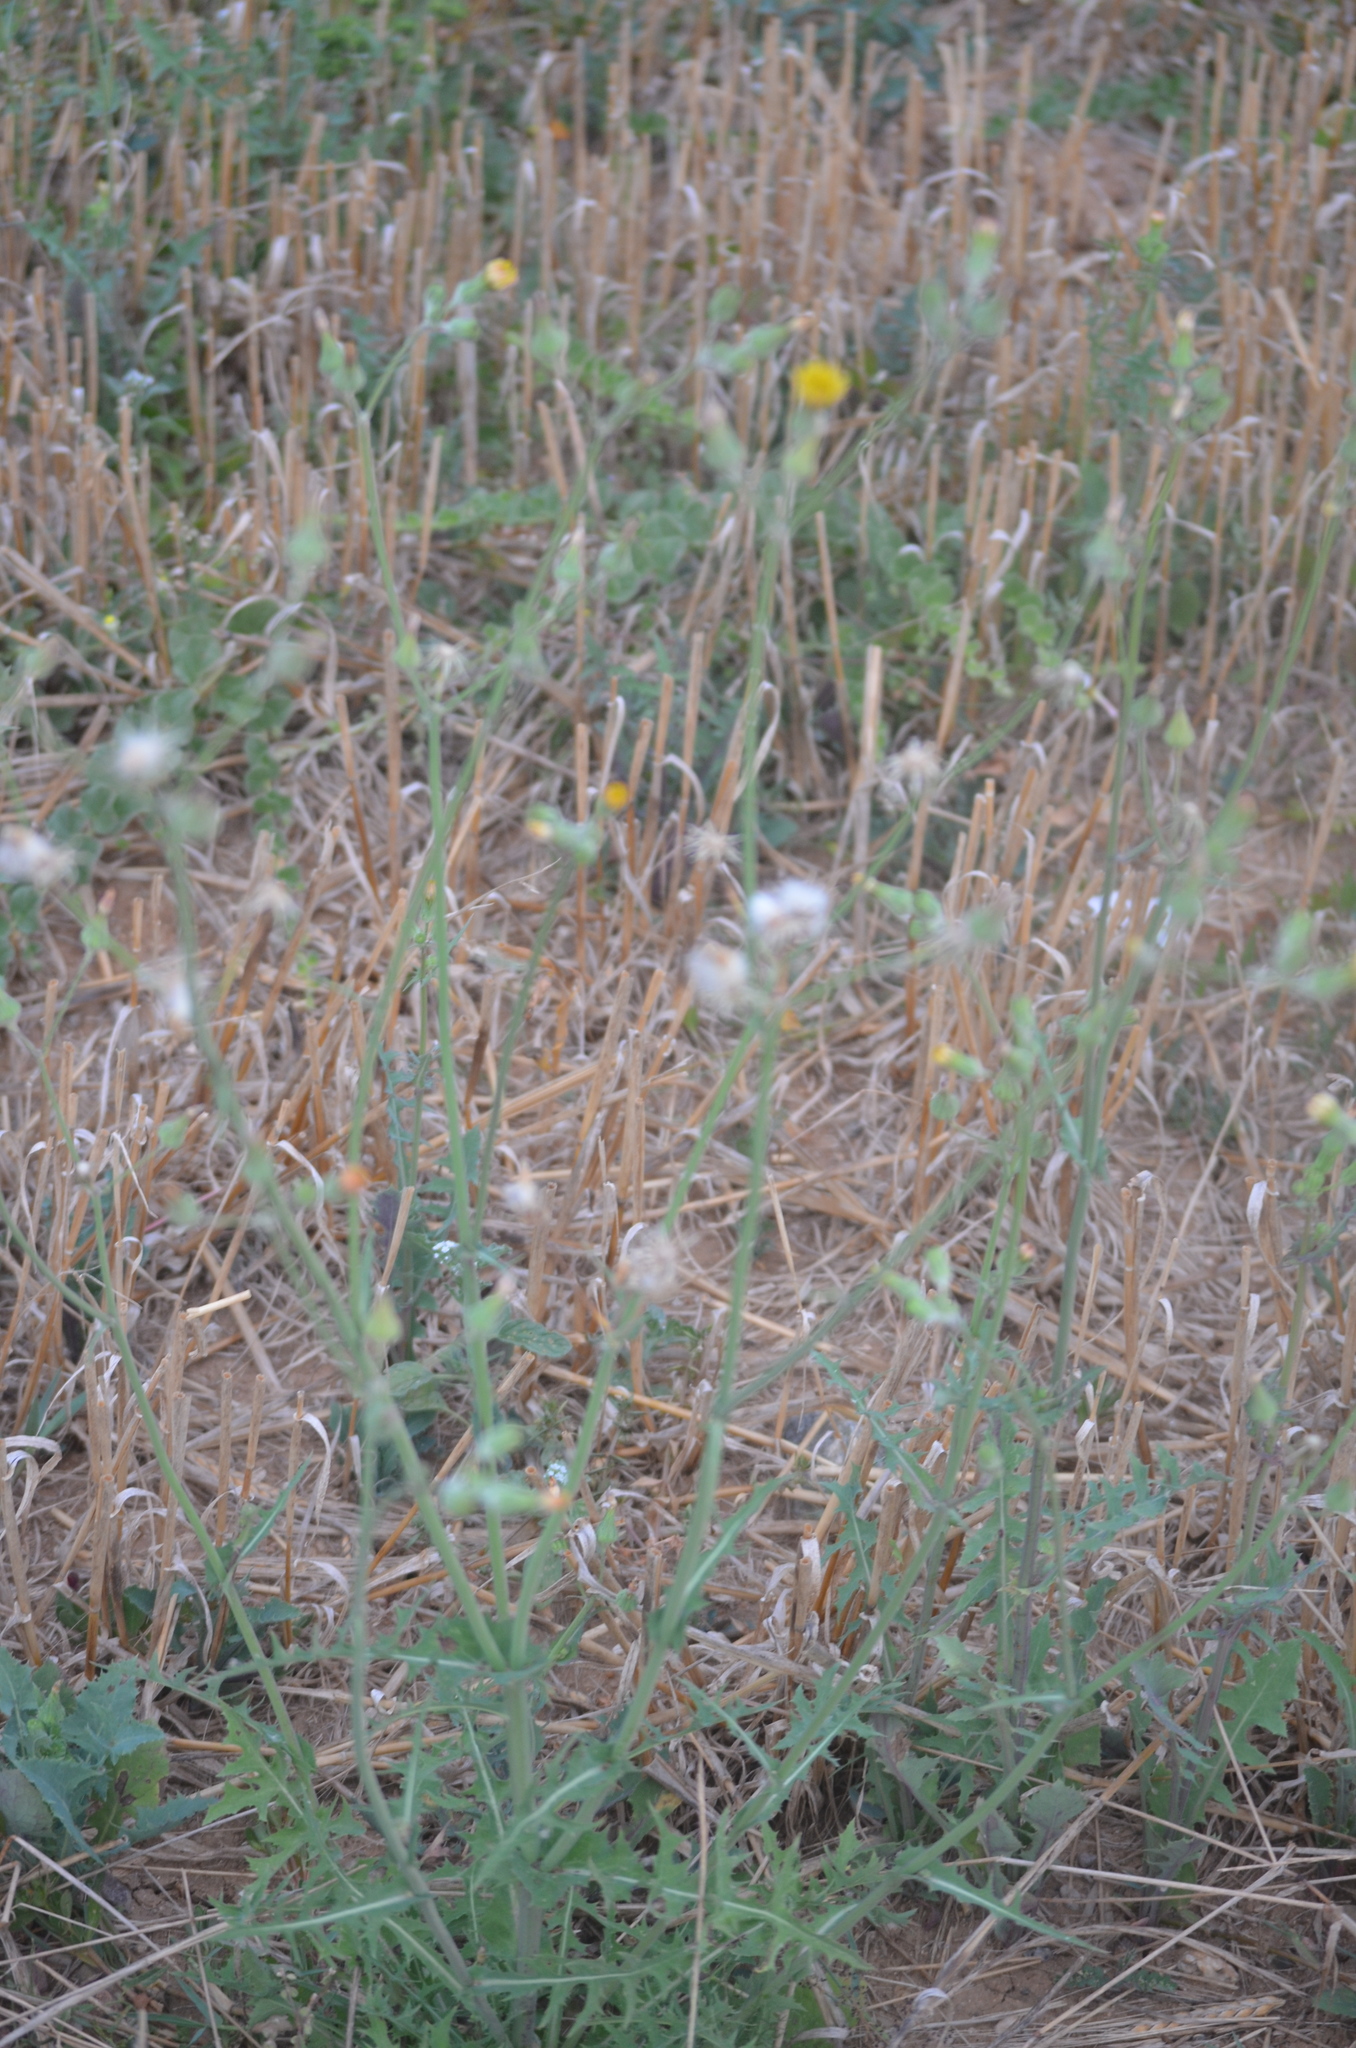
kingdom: Plantae
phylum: Tracheophyta
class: Magnoliopsida
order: Asterales
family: Asteraceae
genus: Sonchus
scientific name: Sonchus oleraceus
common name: Common sowthistle
